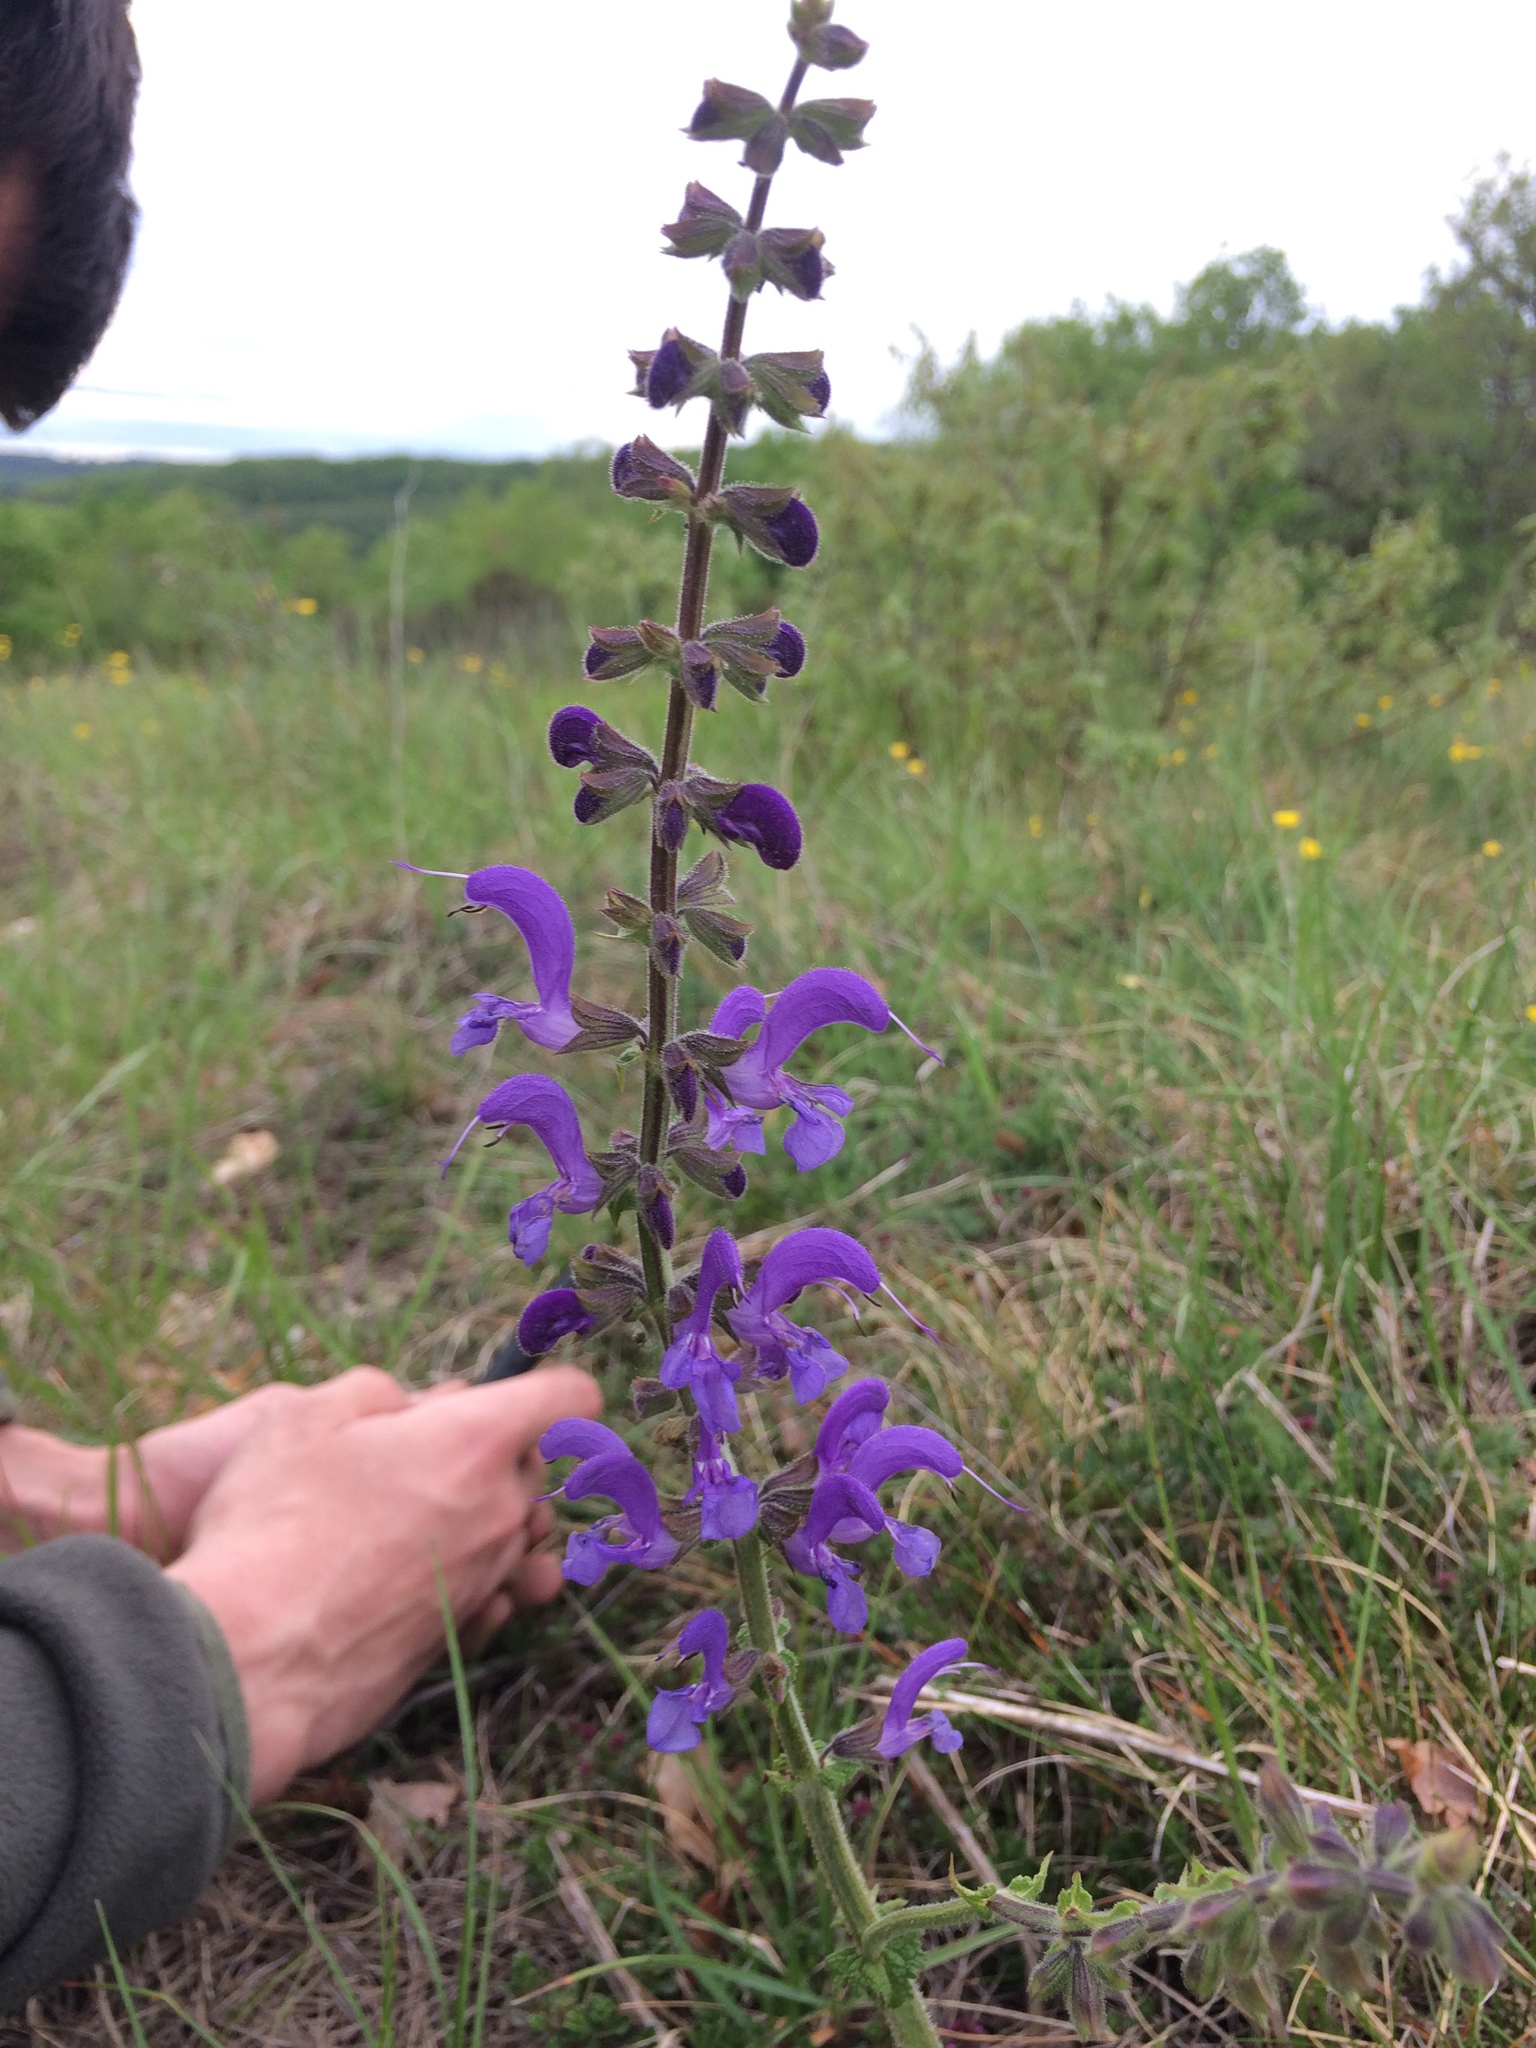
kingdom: Plantae
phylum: Tracheophyta
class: Magnoliopsida
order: Lamiales
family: Lamiaceae
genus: Salvia
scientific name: Salvia pratensis
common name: Meadow sage
